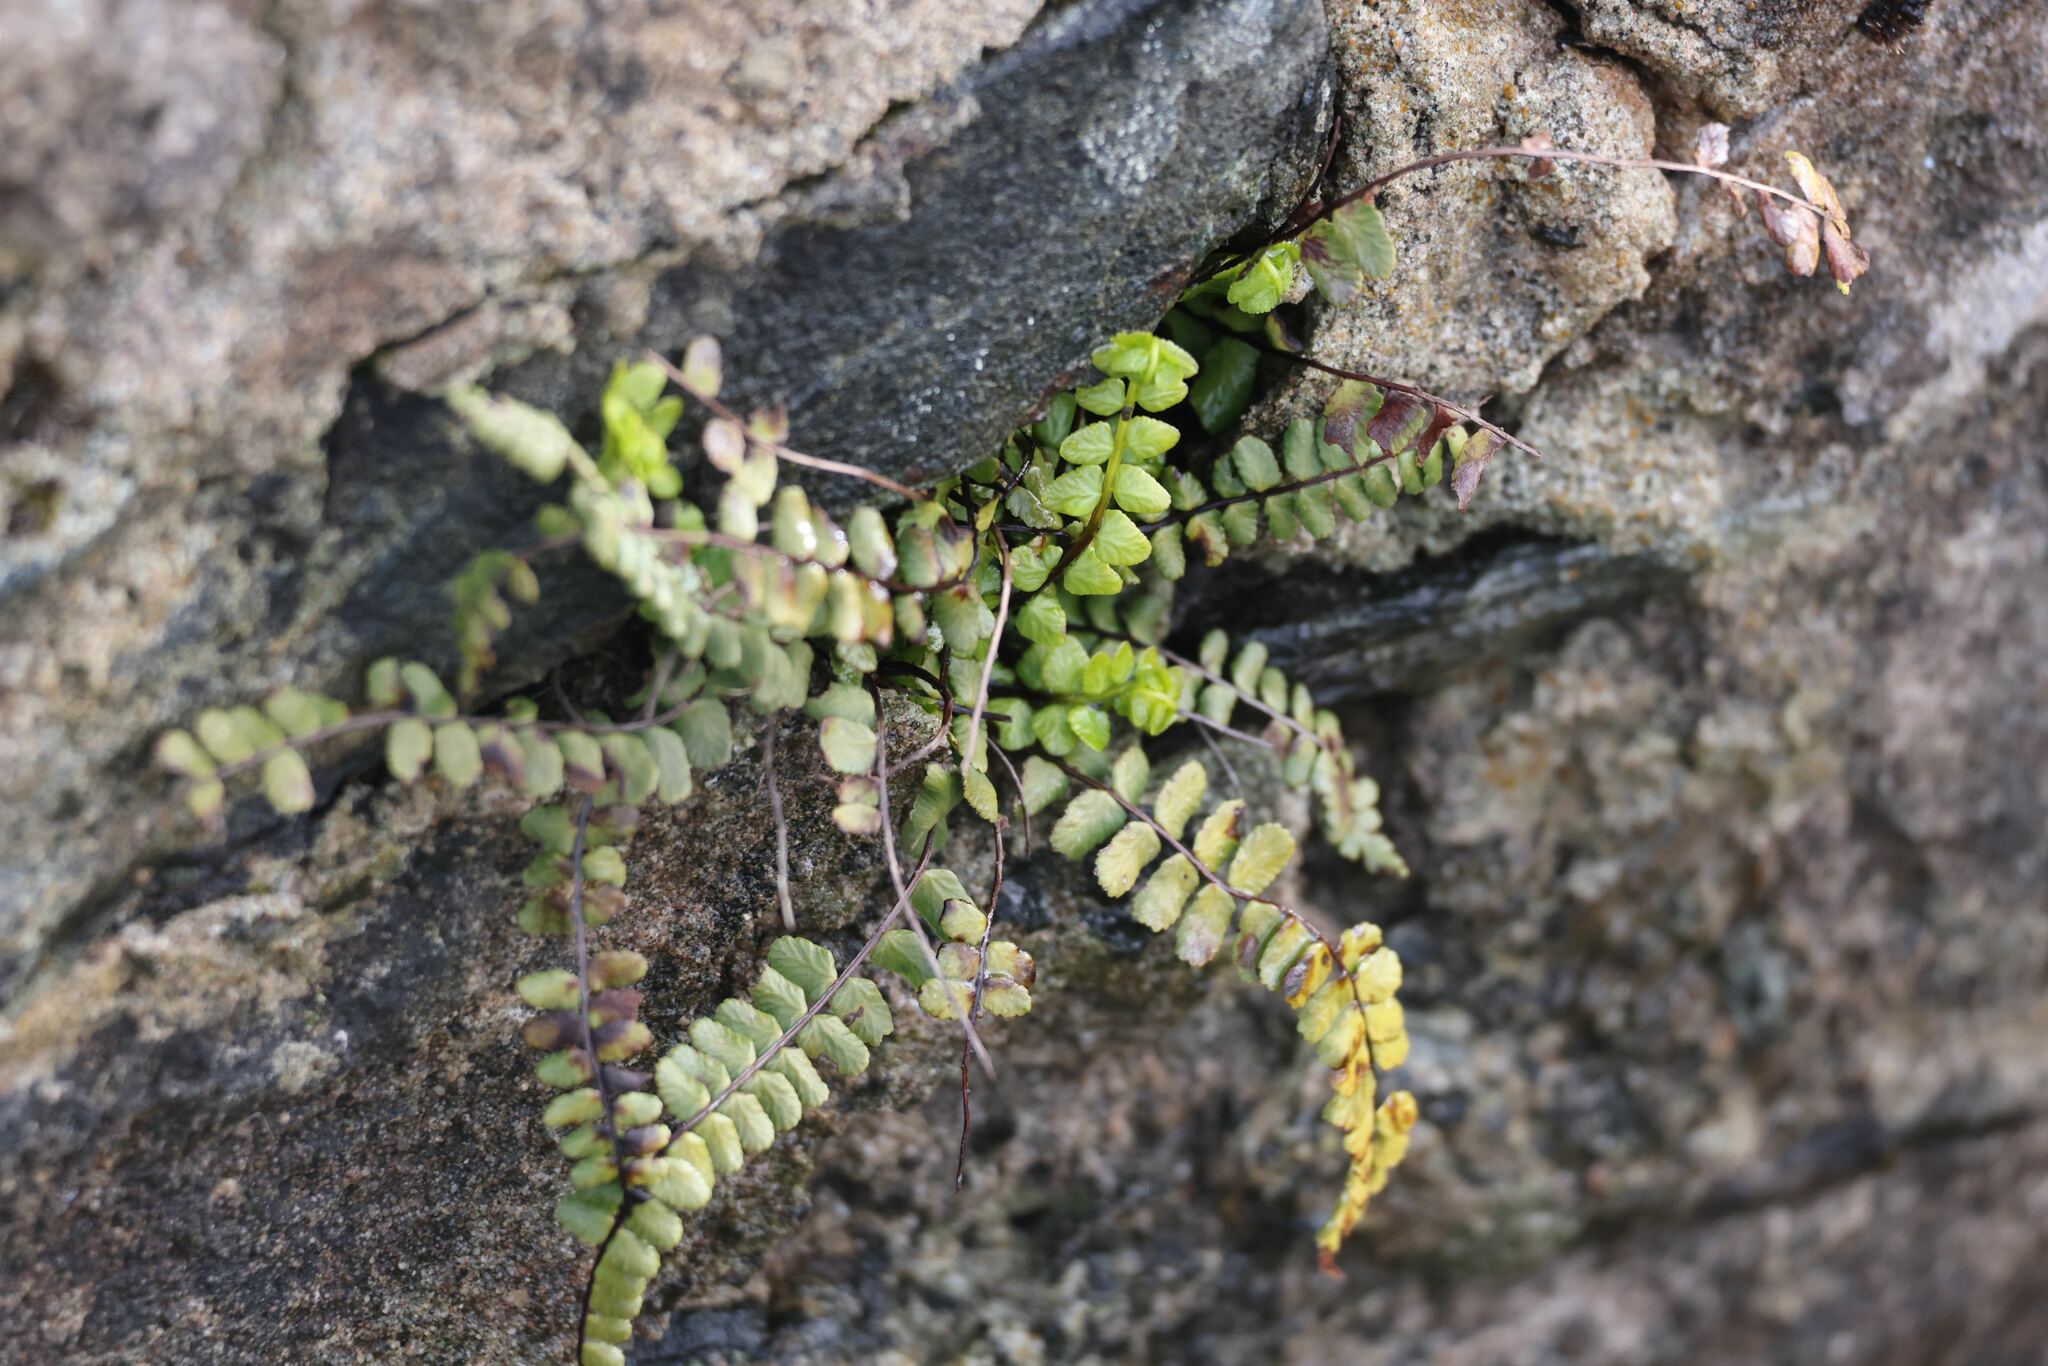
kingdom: Plantae
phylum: Tracheophyta
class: Polypodiopsida
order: Polypodiales
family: Aspleniaceae
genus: Asplenium
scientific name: Asplenium trichomanes
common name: Maidenhair spleenwort
